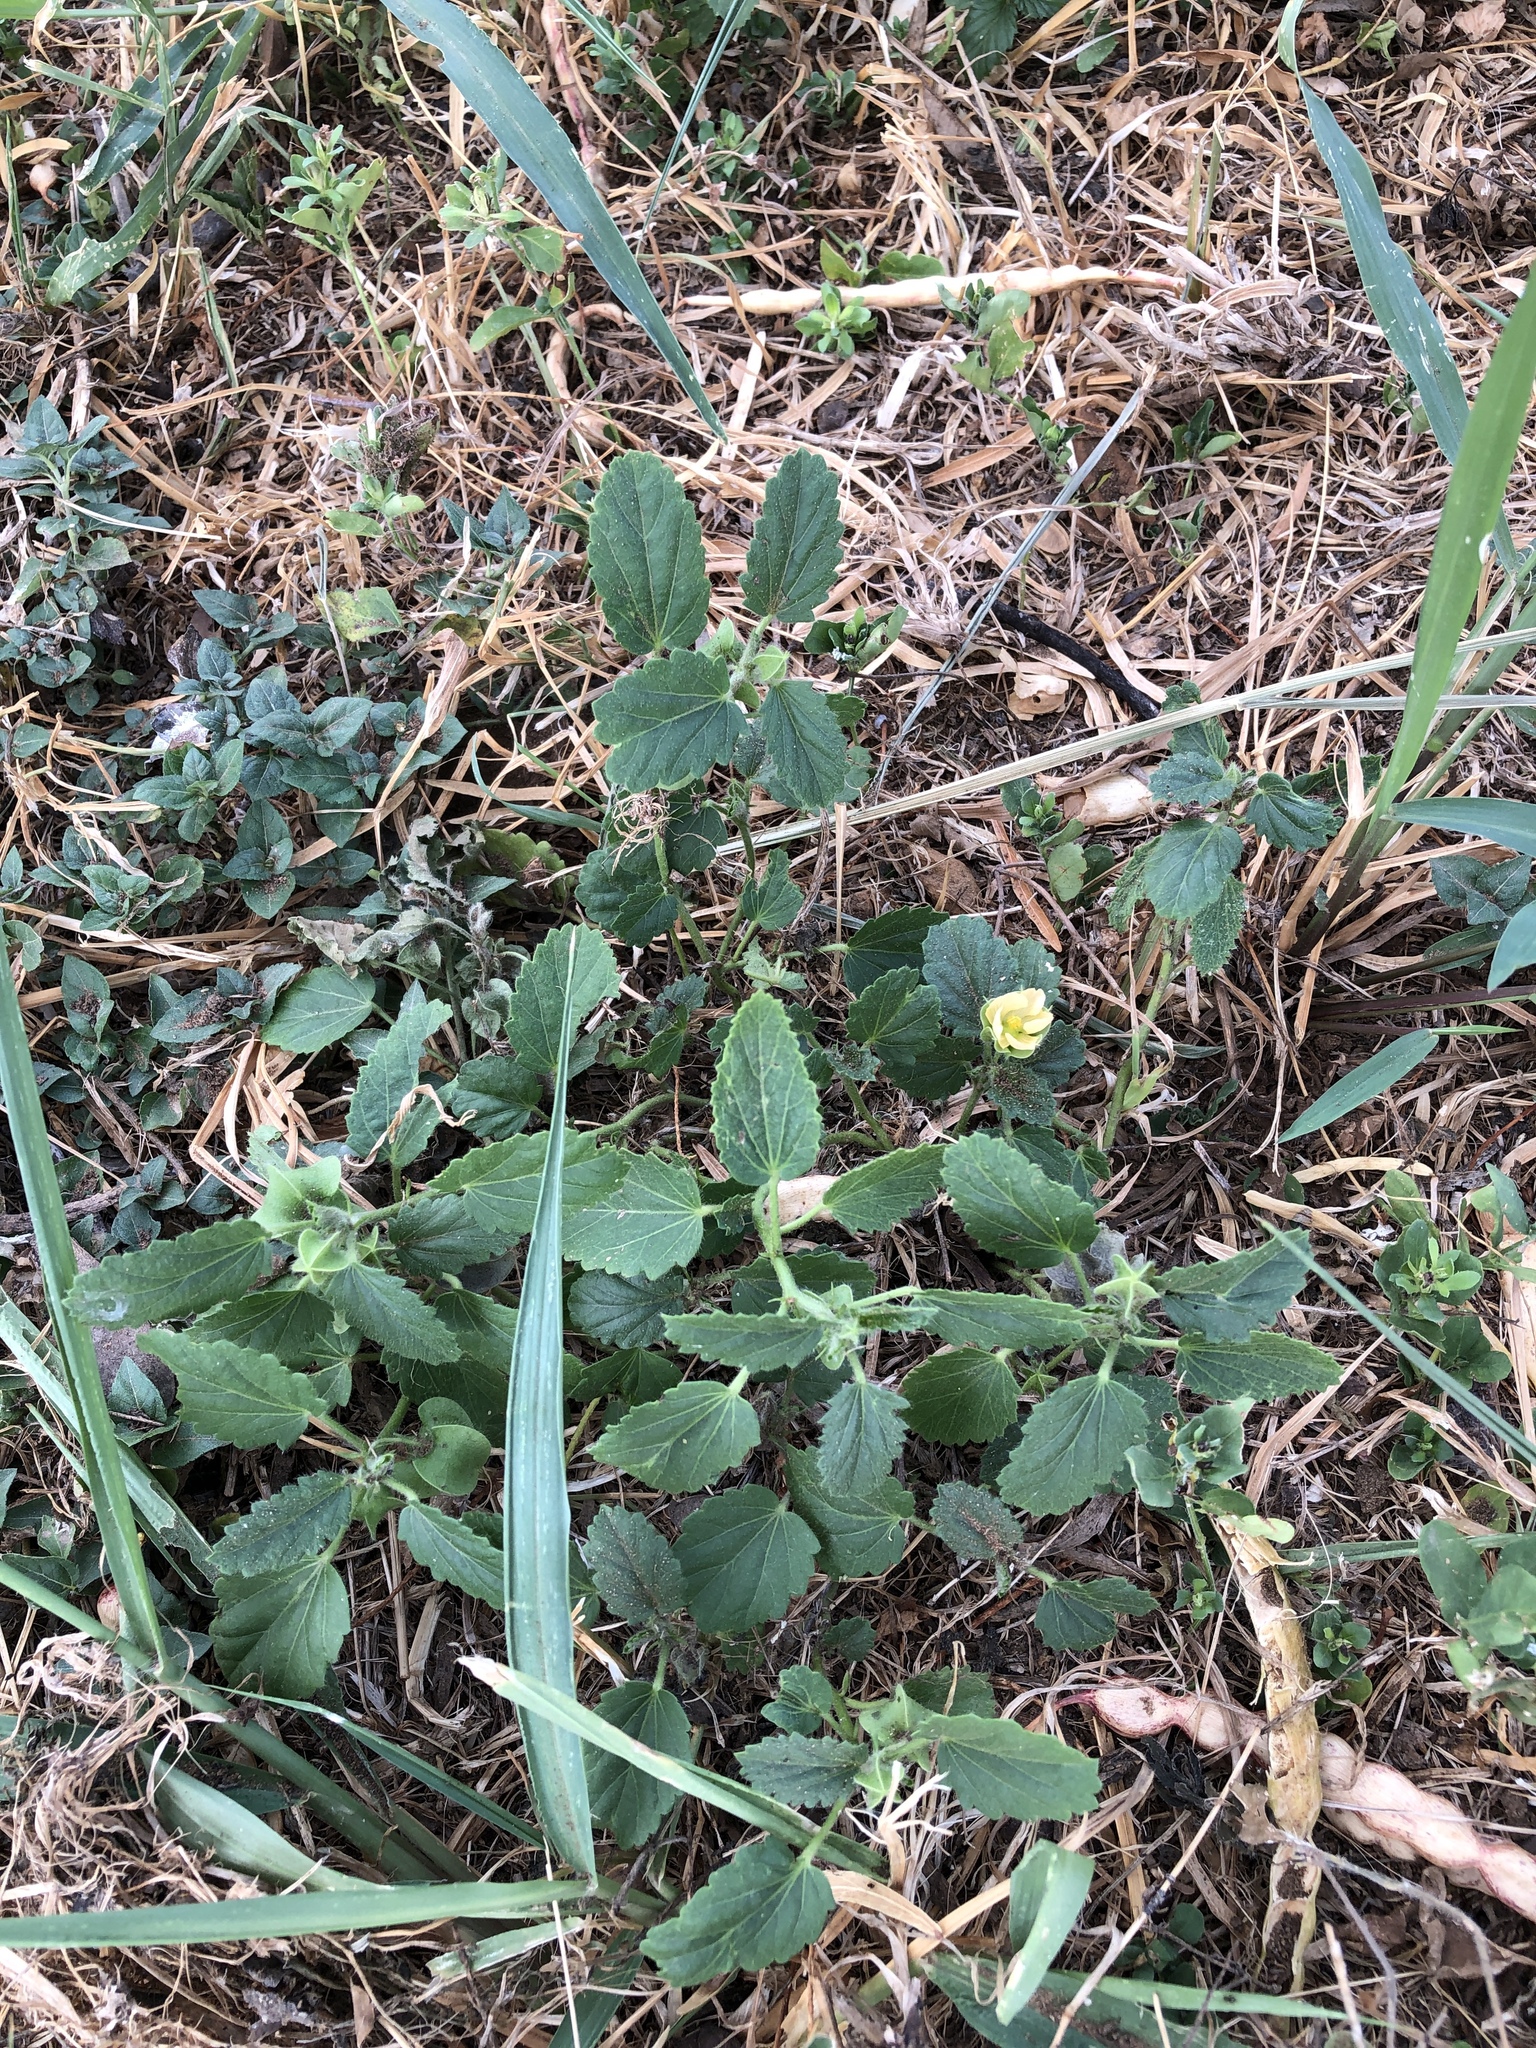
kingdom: Plantae
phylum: Tracheophyta
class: Magnoliopsida
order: Malvales
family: Malvaceae
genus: Rhynchosida
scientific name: Rhynchosida physocalyx
